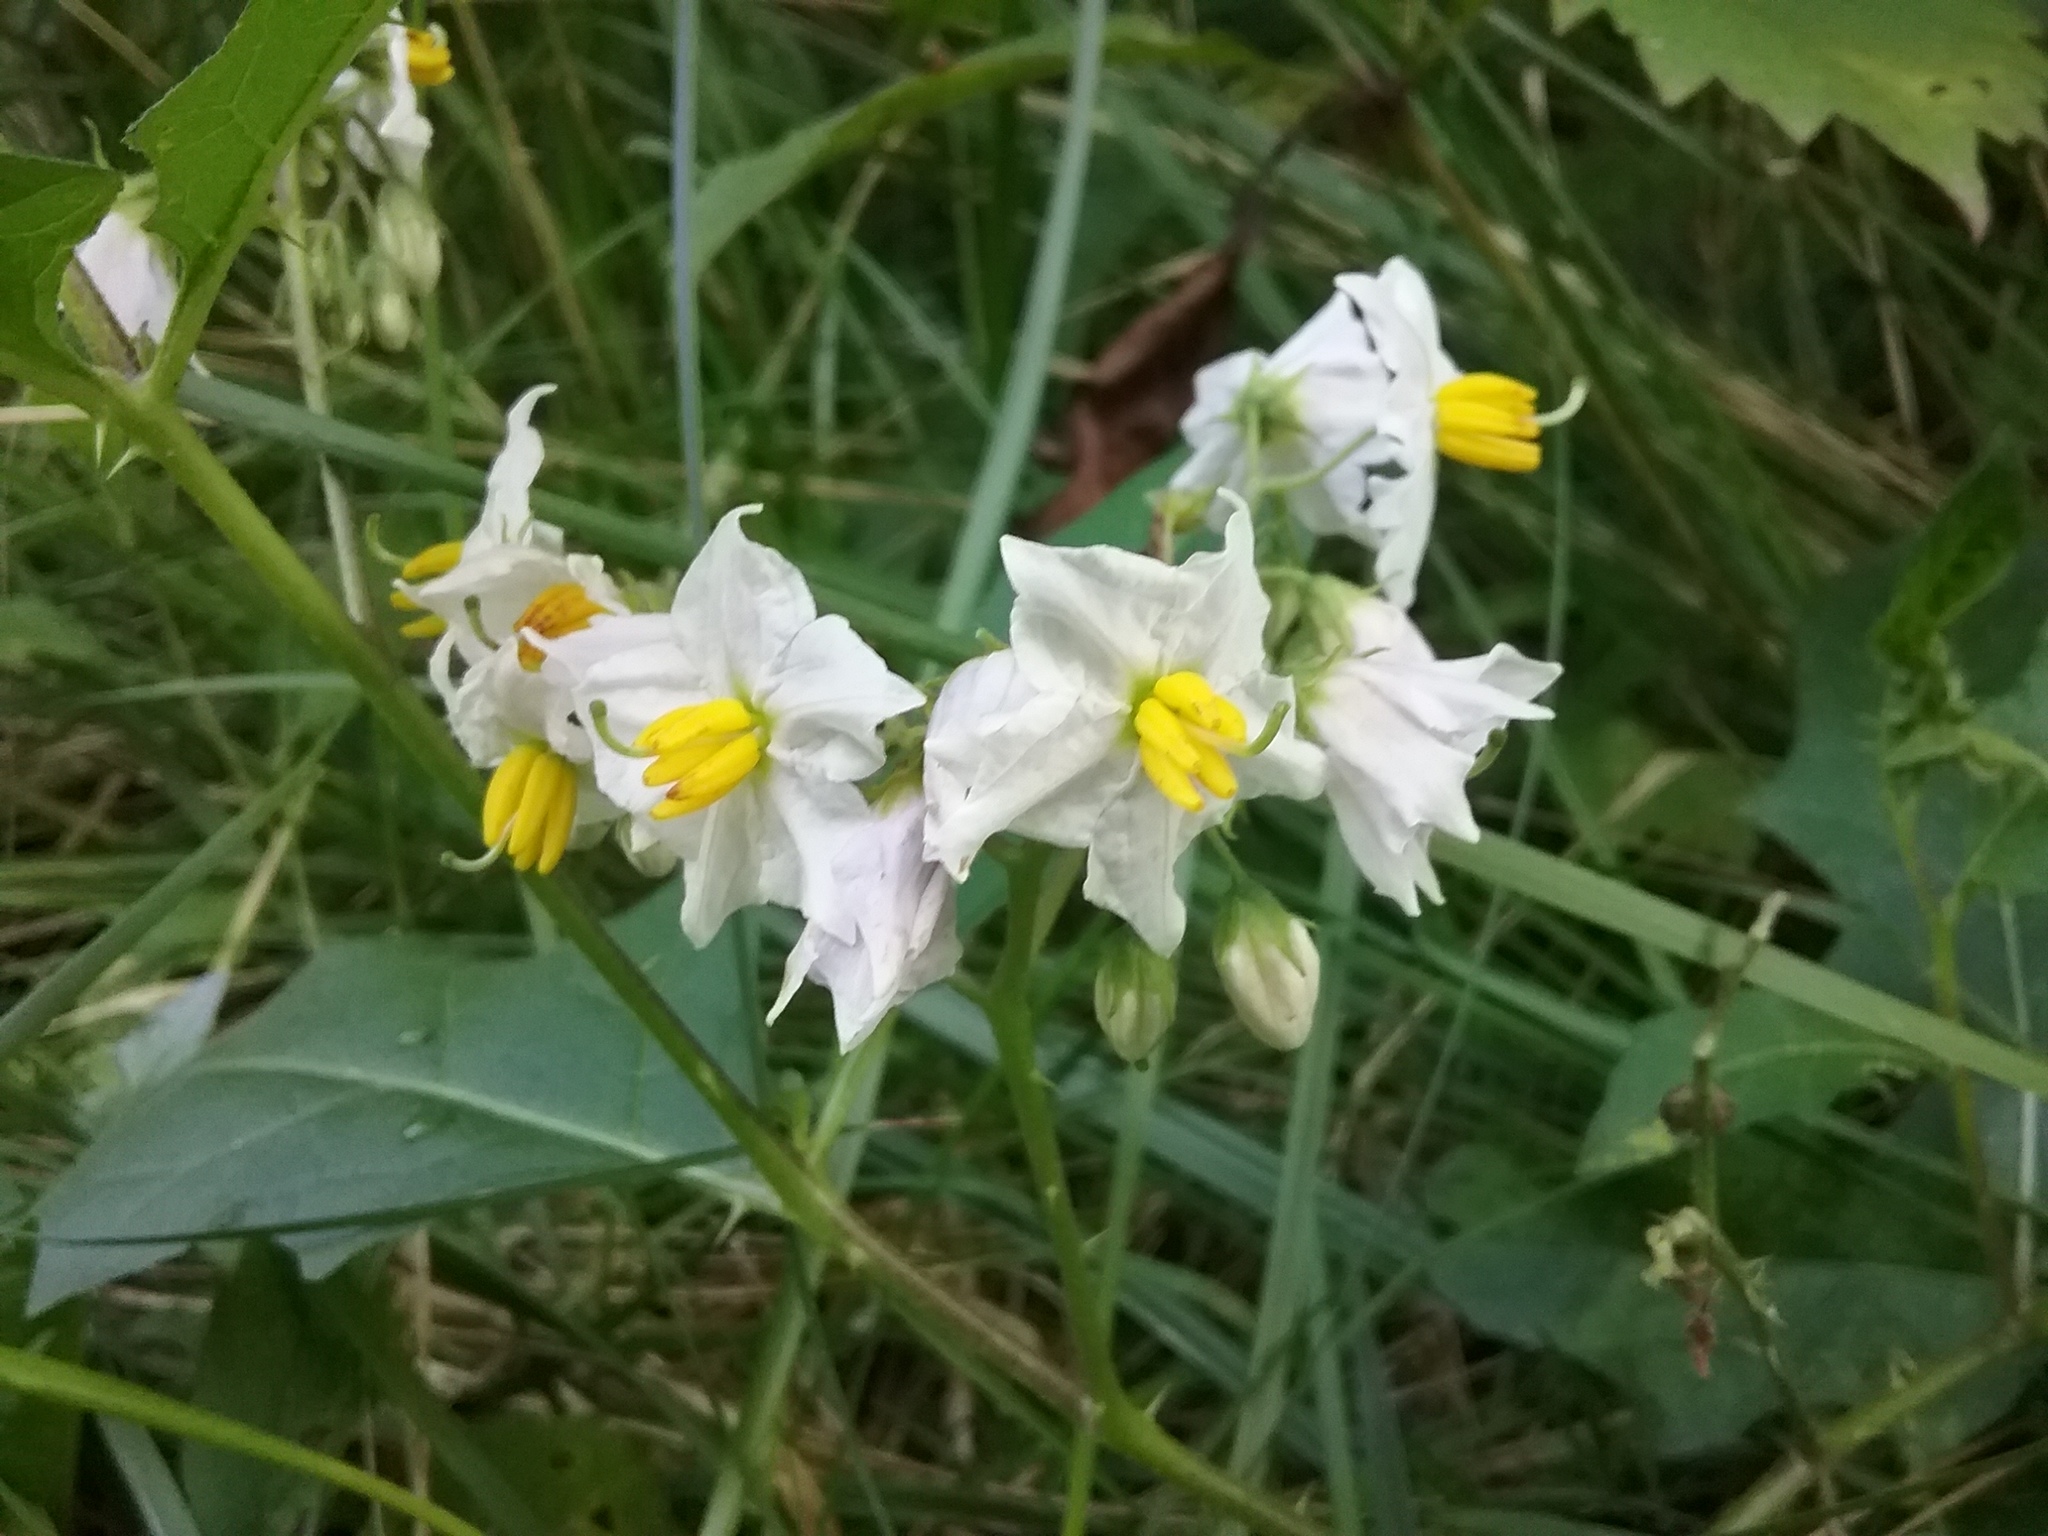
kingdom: Plantae
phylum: Tracheophyta
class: Magnoliopsida
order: Solanales
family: Solanaceae
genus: Solanum
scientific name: Solanum carolinense
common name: Horse-nettle
